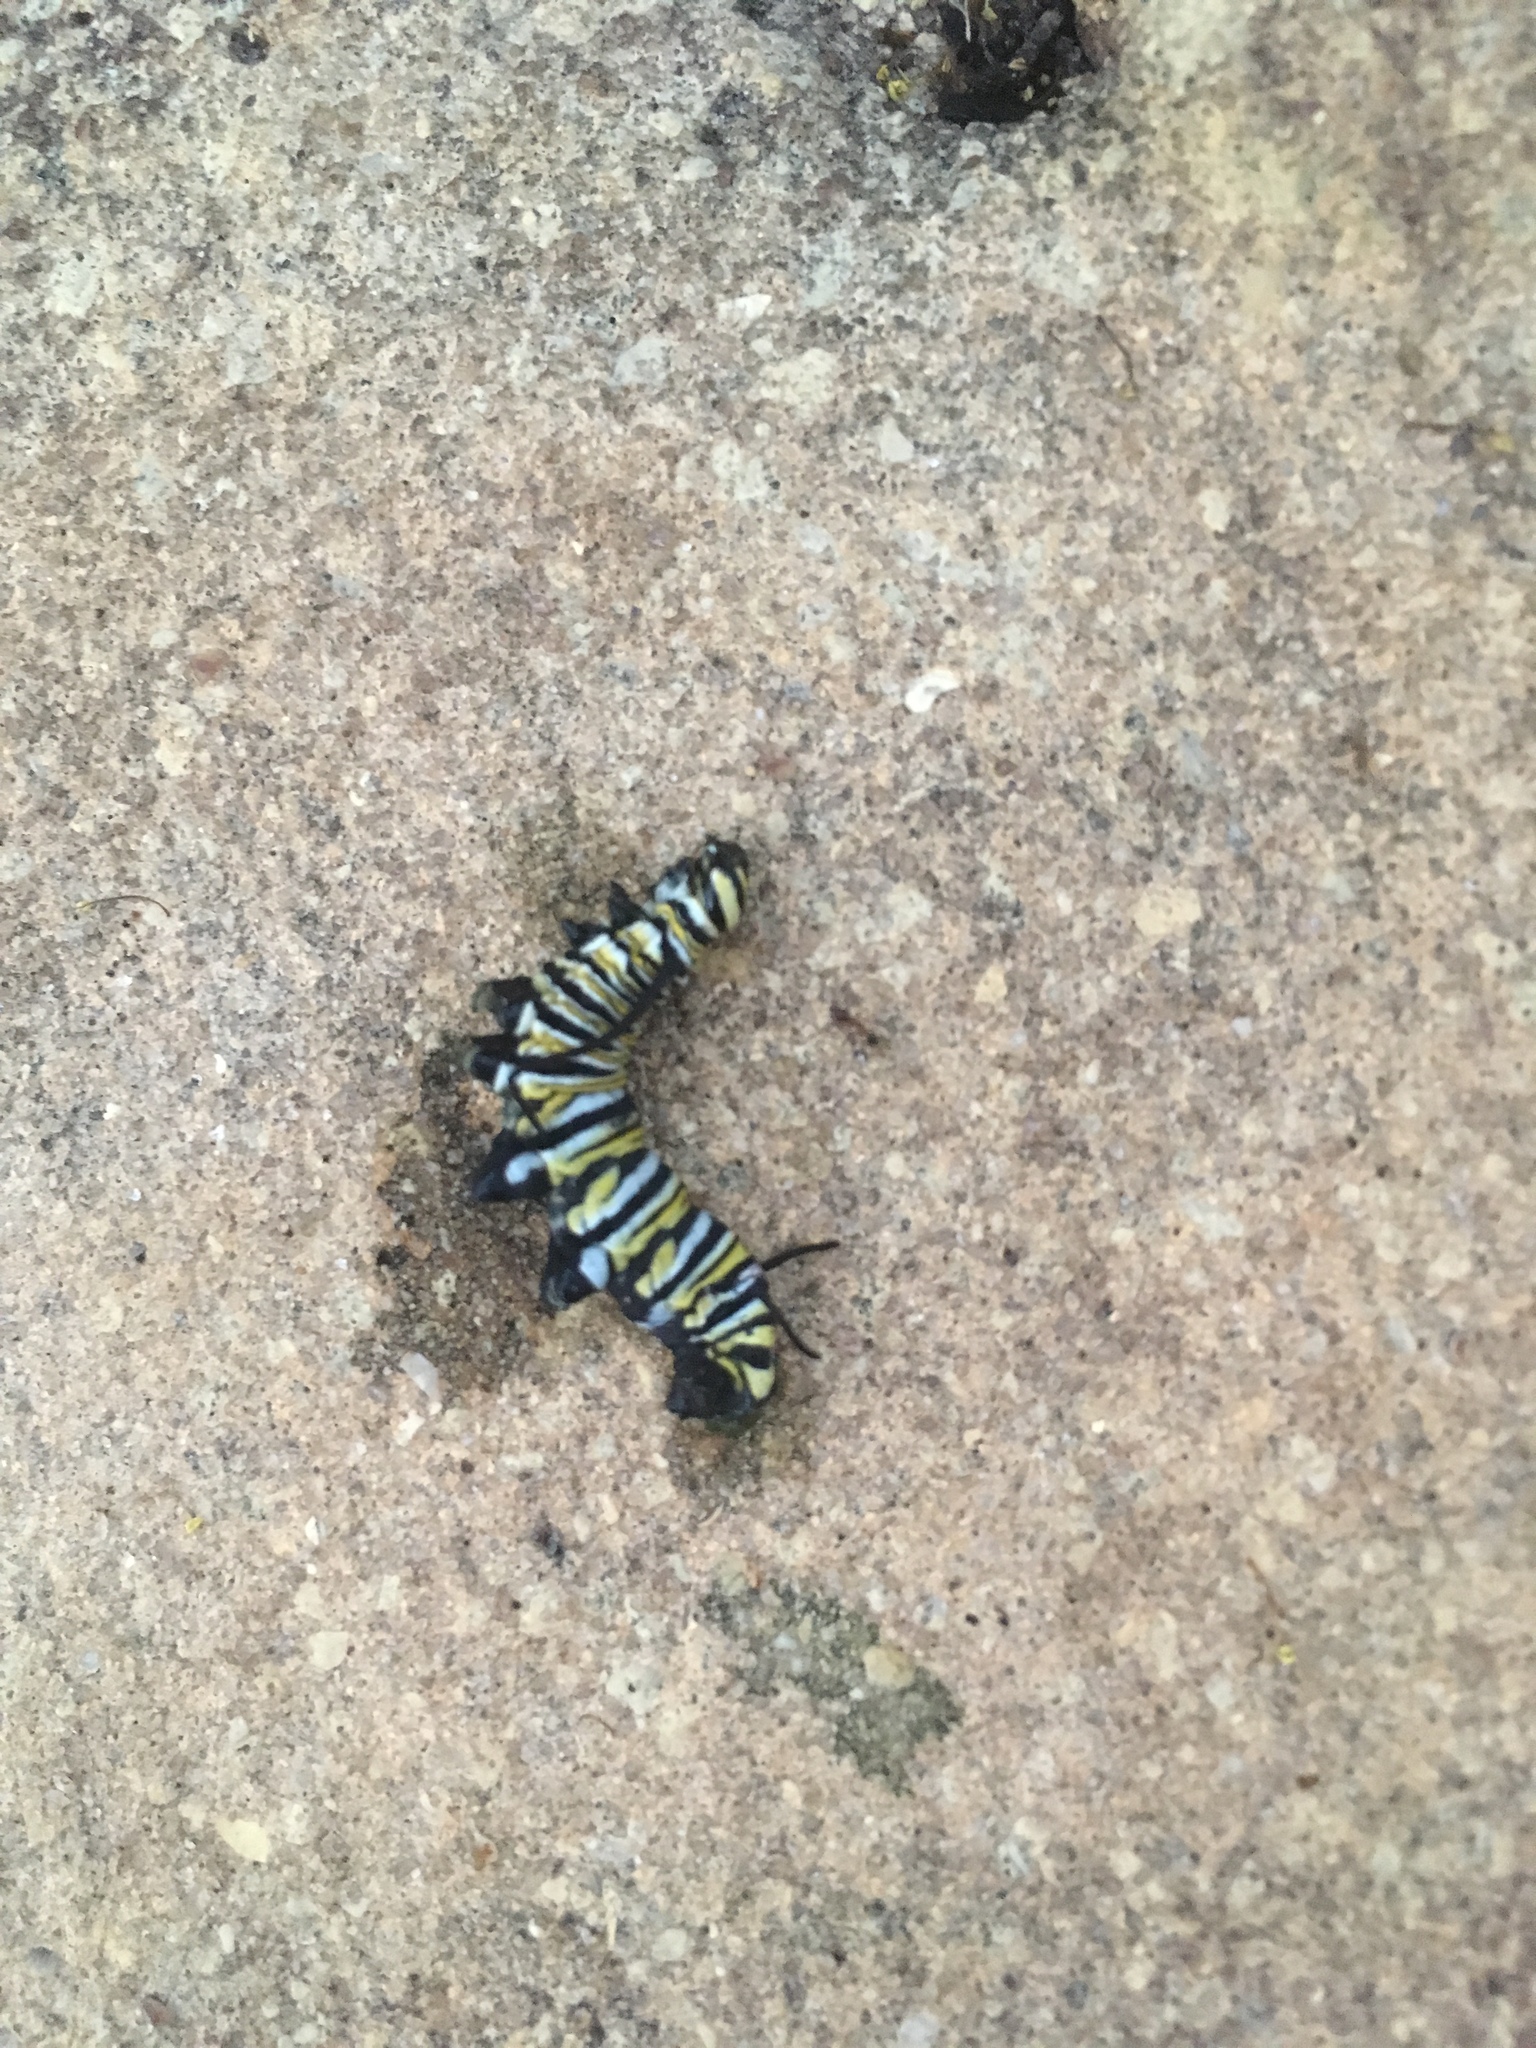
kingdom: Animalia
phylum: Arthropoda
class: Insecta
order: Lepidoptera
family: Nymphalidae
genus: Danaus
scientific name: Danaus plexippus
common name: Monarch
